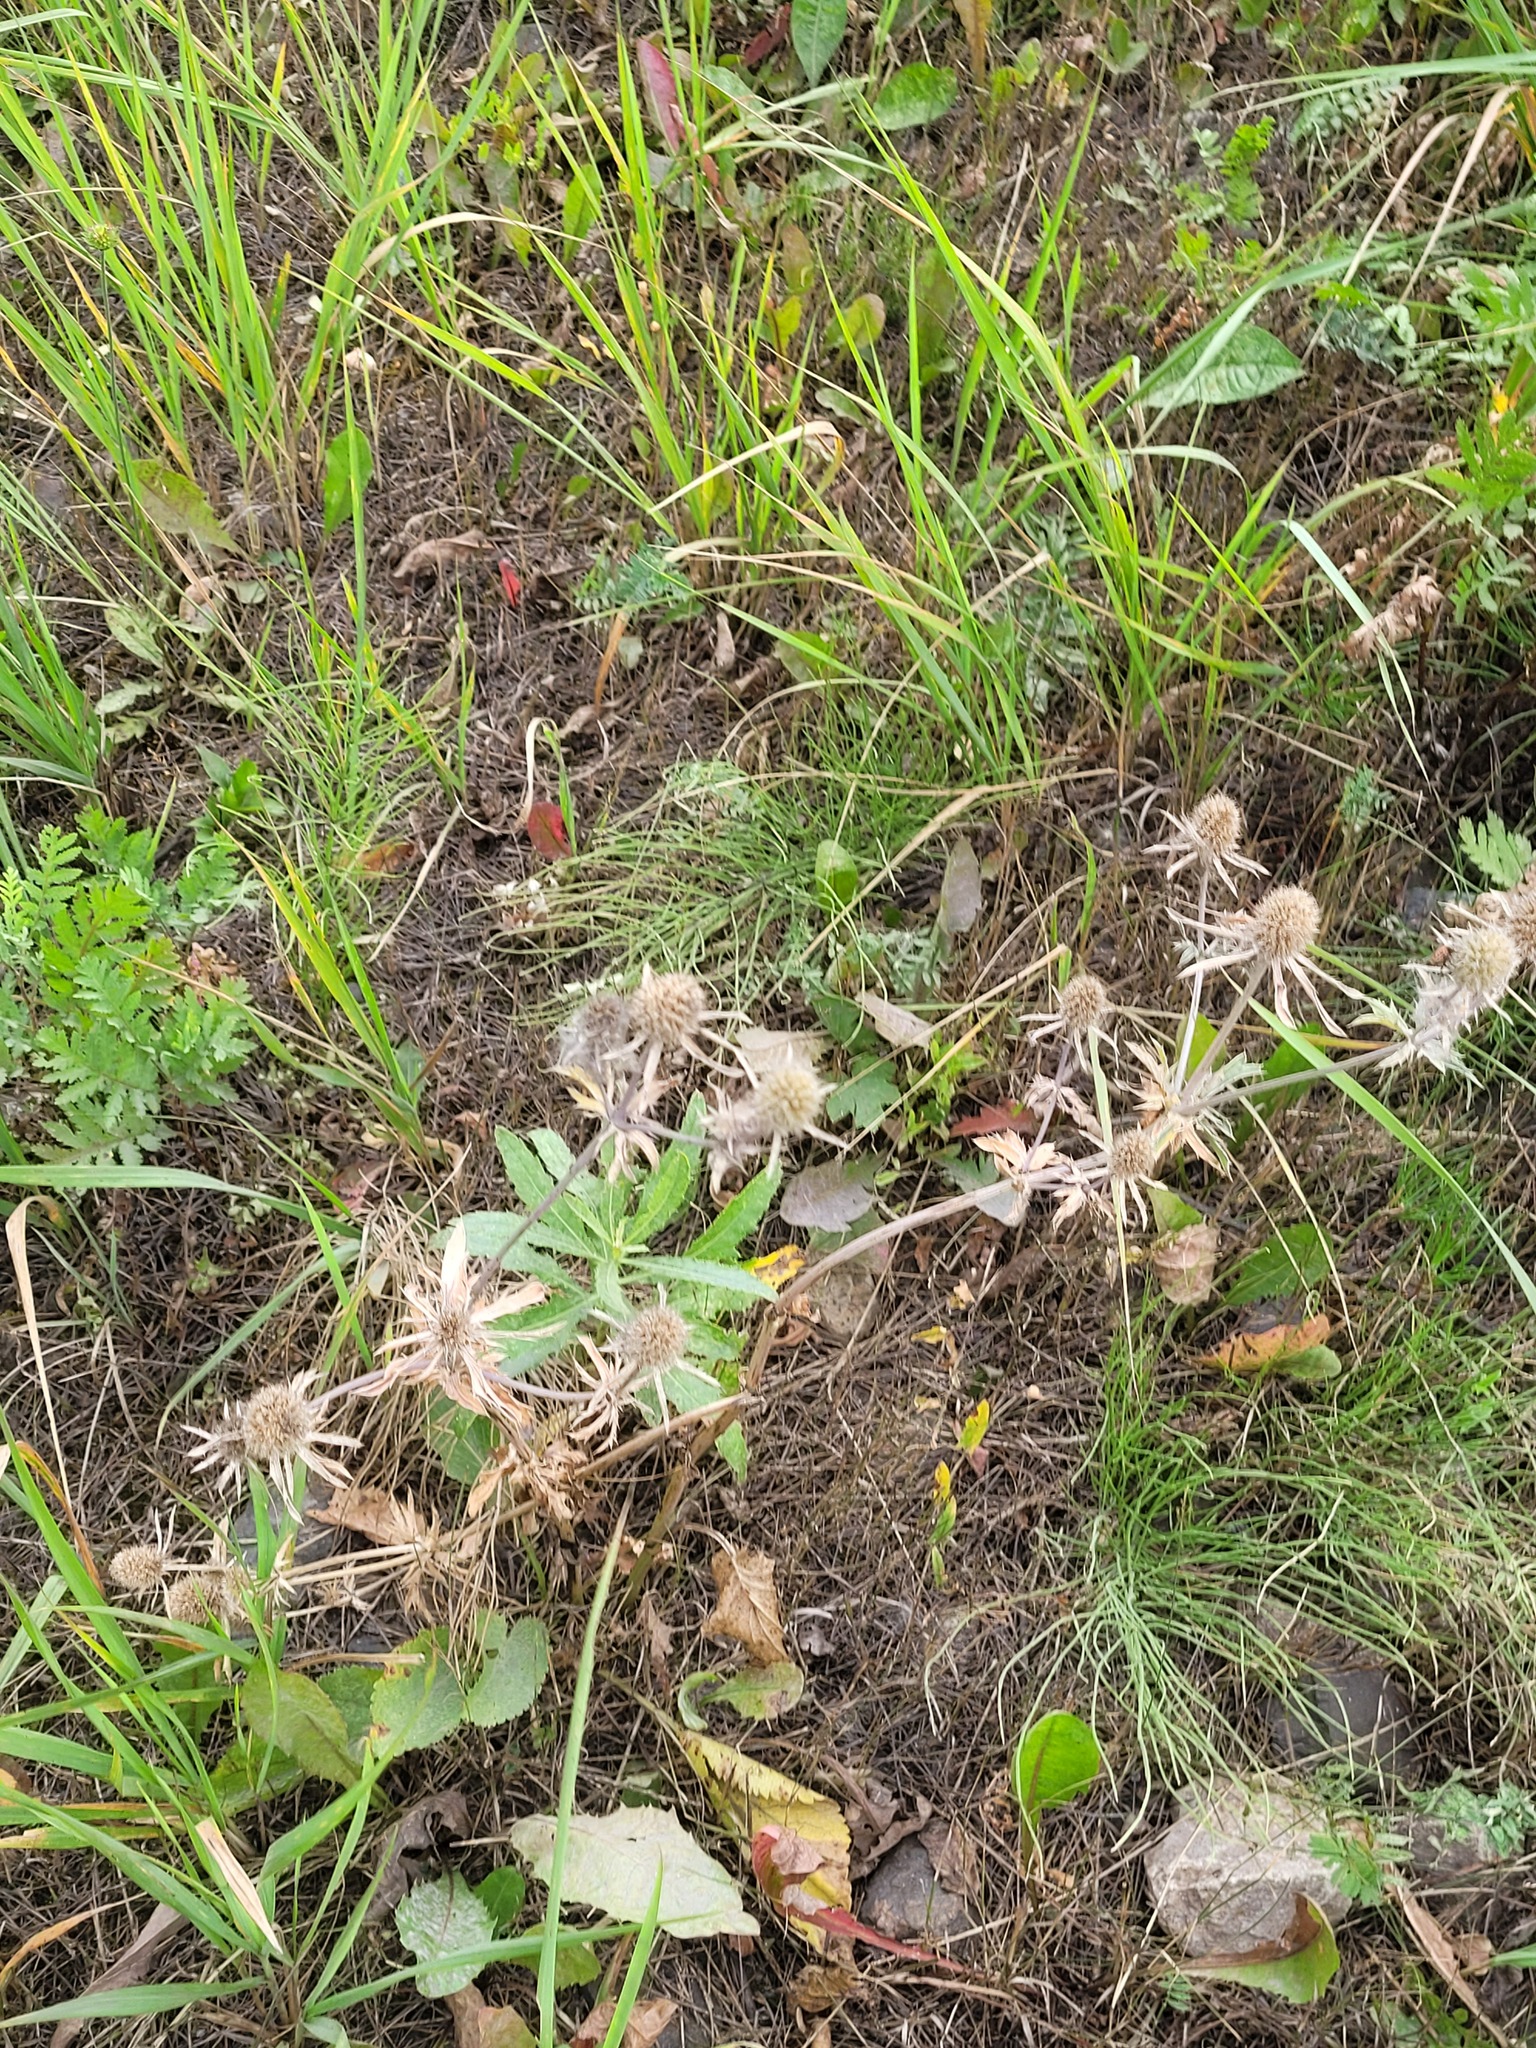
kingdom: Plantae
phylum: Tracheophyta
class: Magnoliopsida
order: Apiales
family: Apiaceae
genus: Eryngium
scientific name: Eryngium planum
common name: Blue eryngo
